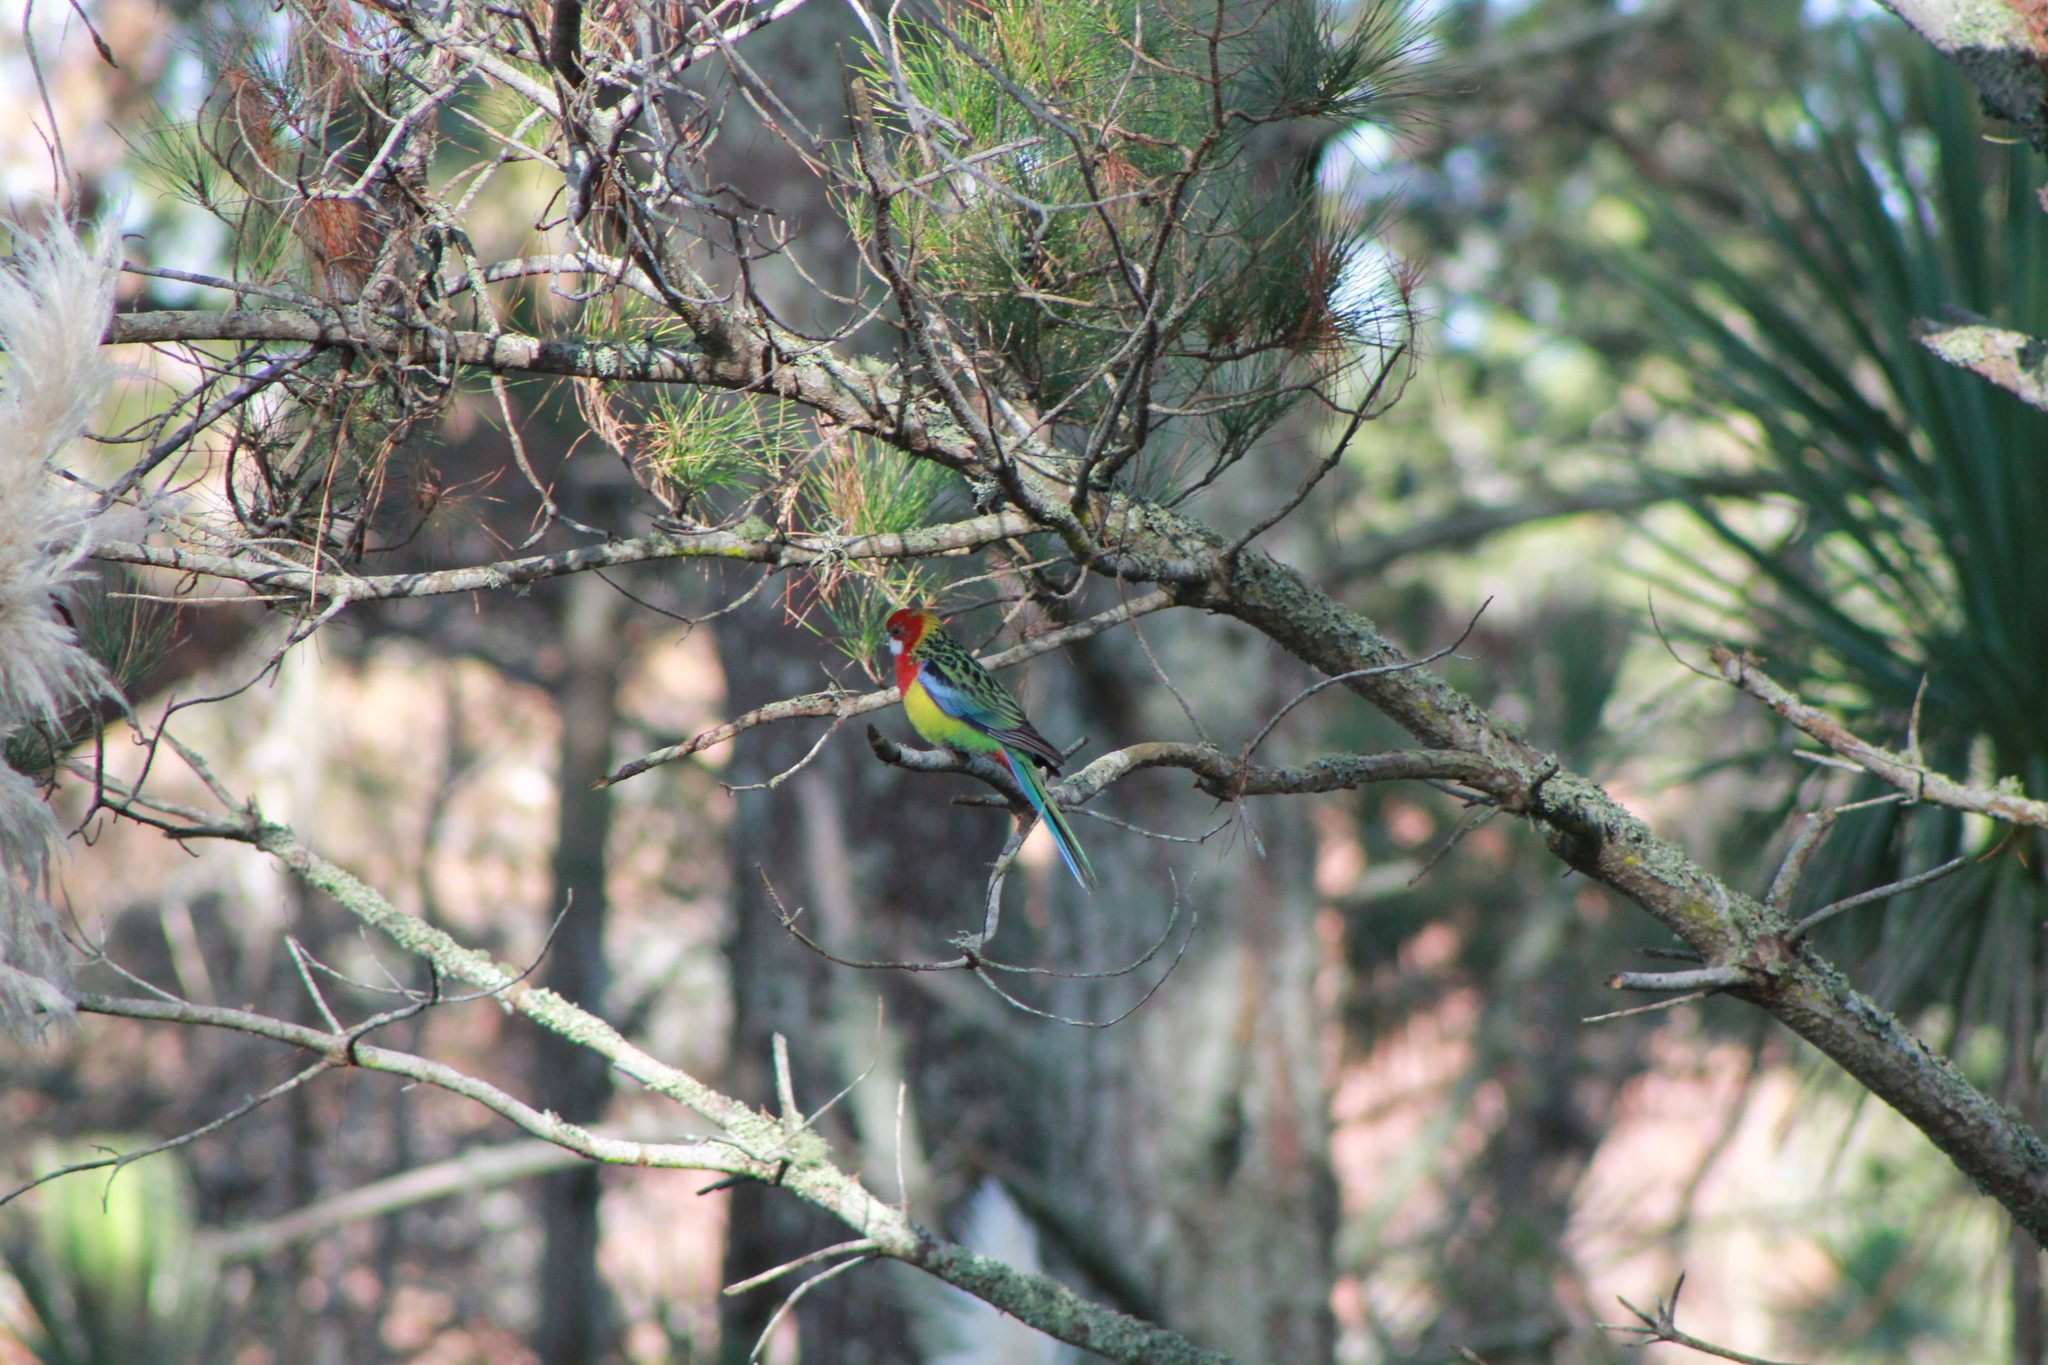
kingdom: Animalia
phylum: Chordata
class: Aves
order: Psittaciformes
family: Psittacidae
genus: Platycercus
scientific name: Platycercus eximius
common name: Eastern rosella
